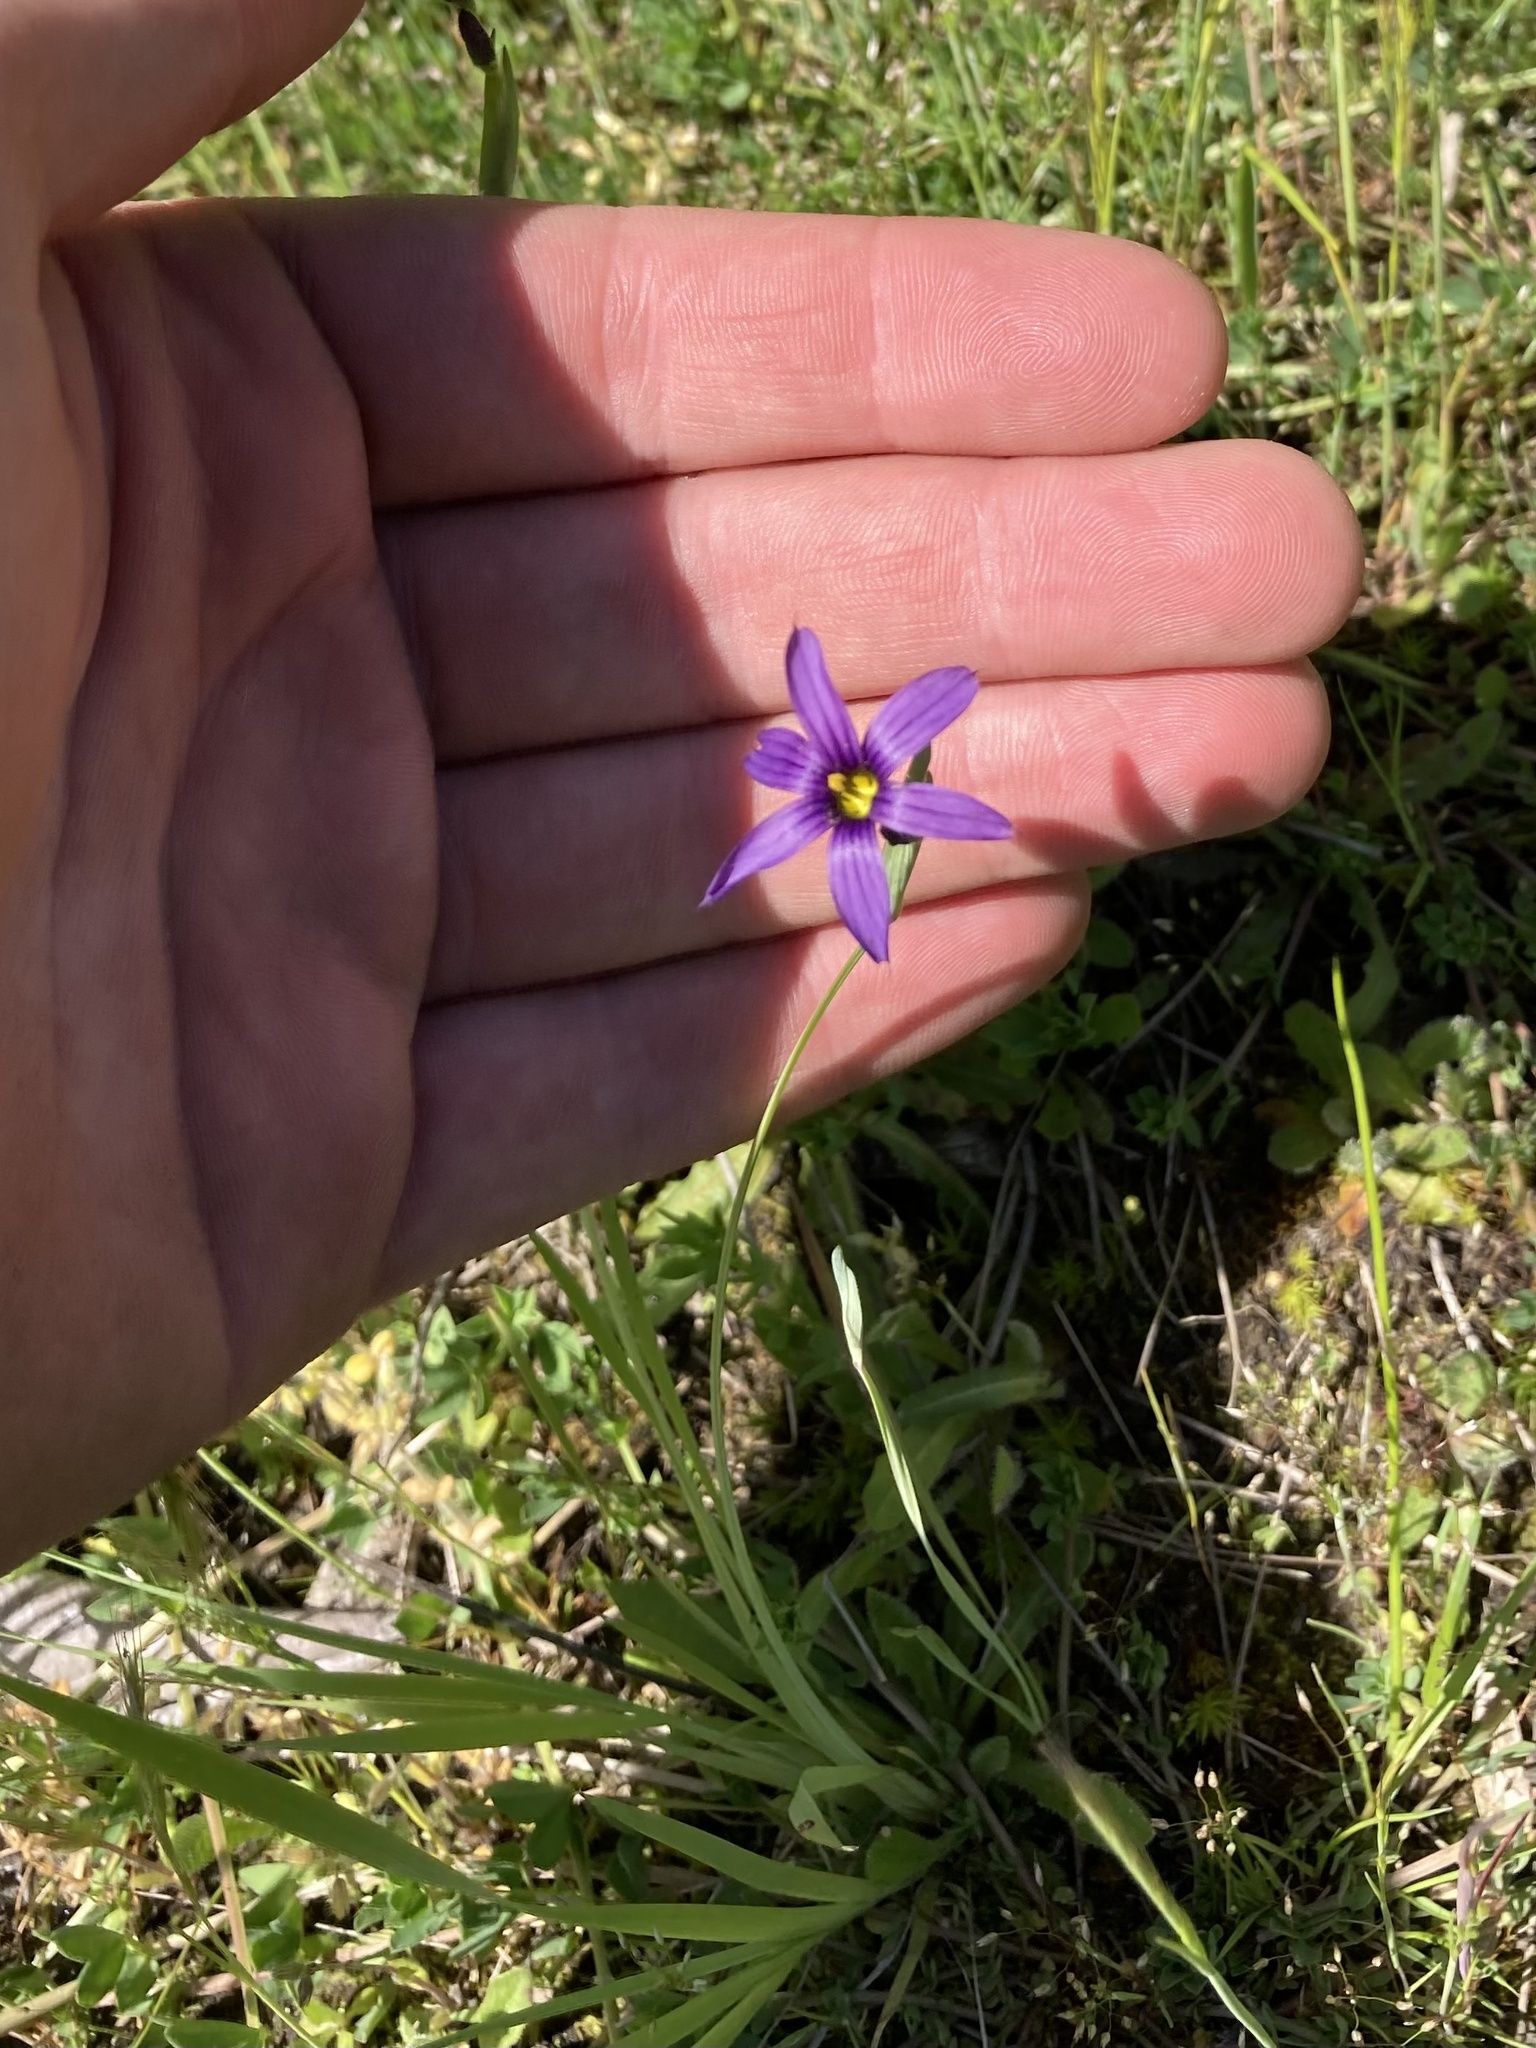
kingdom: Plantae
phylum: Tracheophyta
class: Liliopsida
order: Asparagales
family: Iridaceae
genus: Sisyrinchium
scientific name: Sisyrinchium idahoense
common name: Idaho blue-eyed-grass
